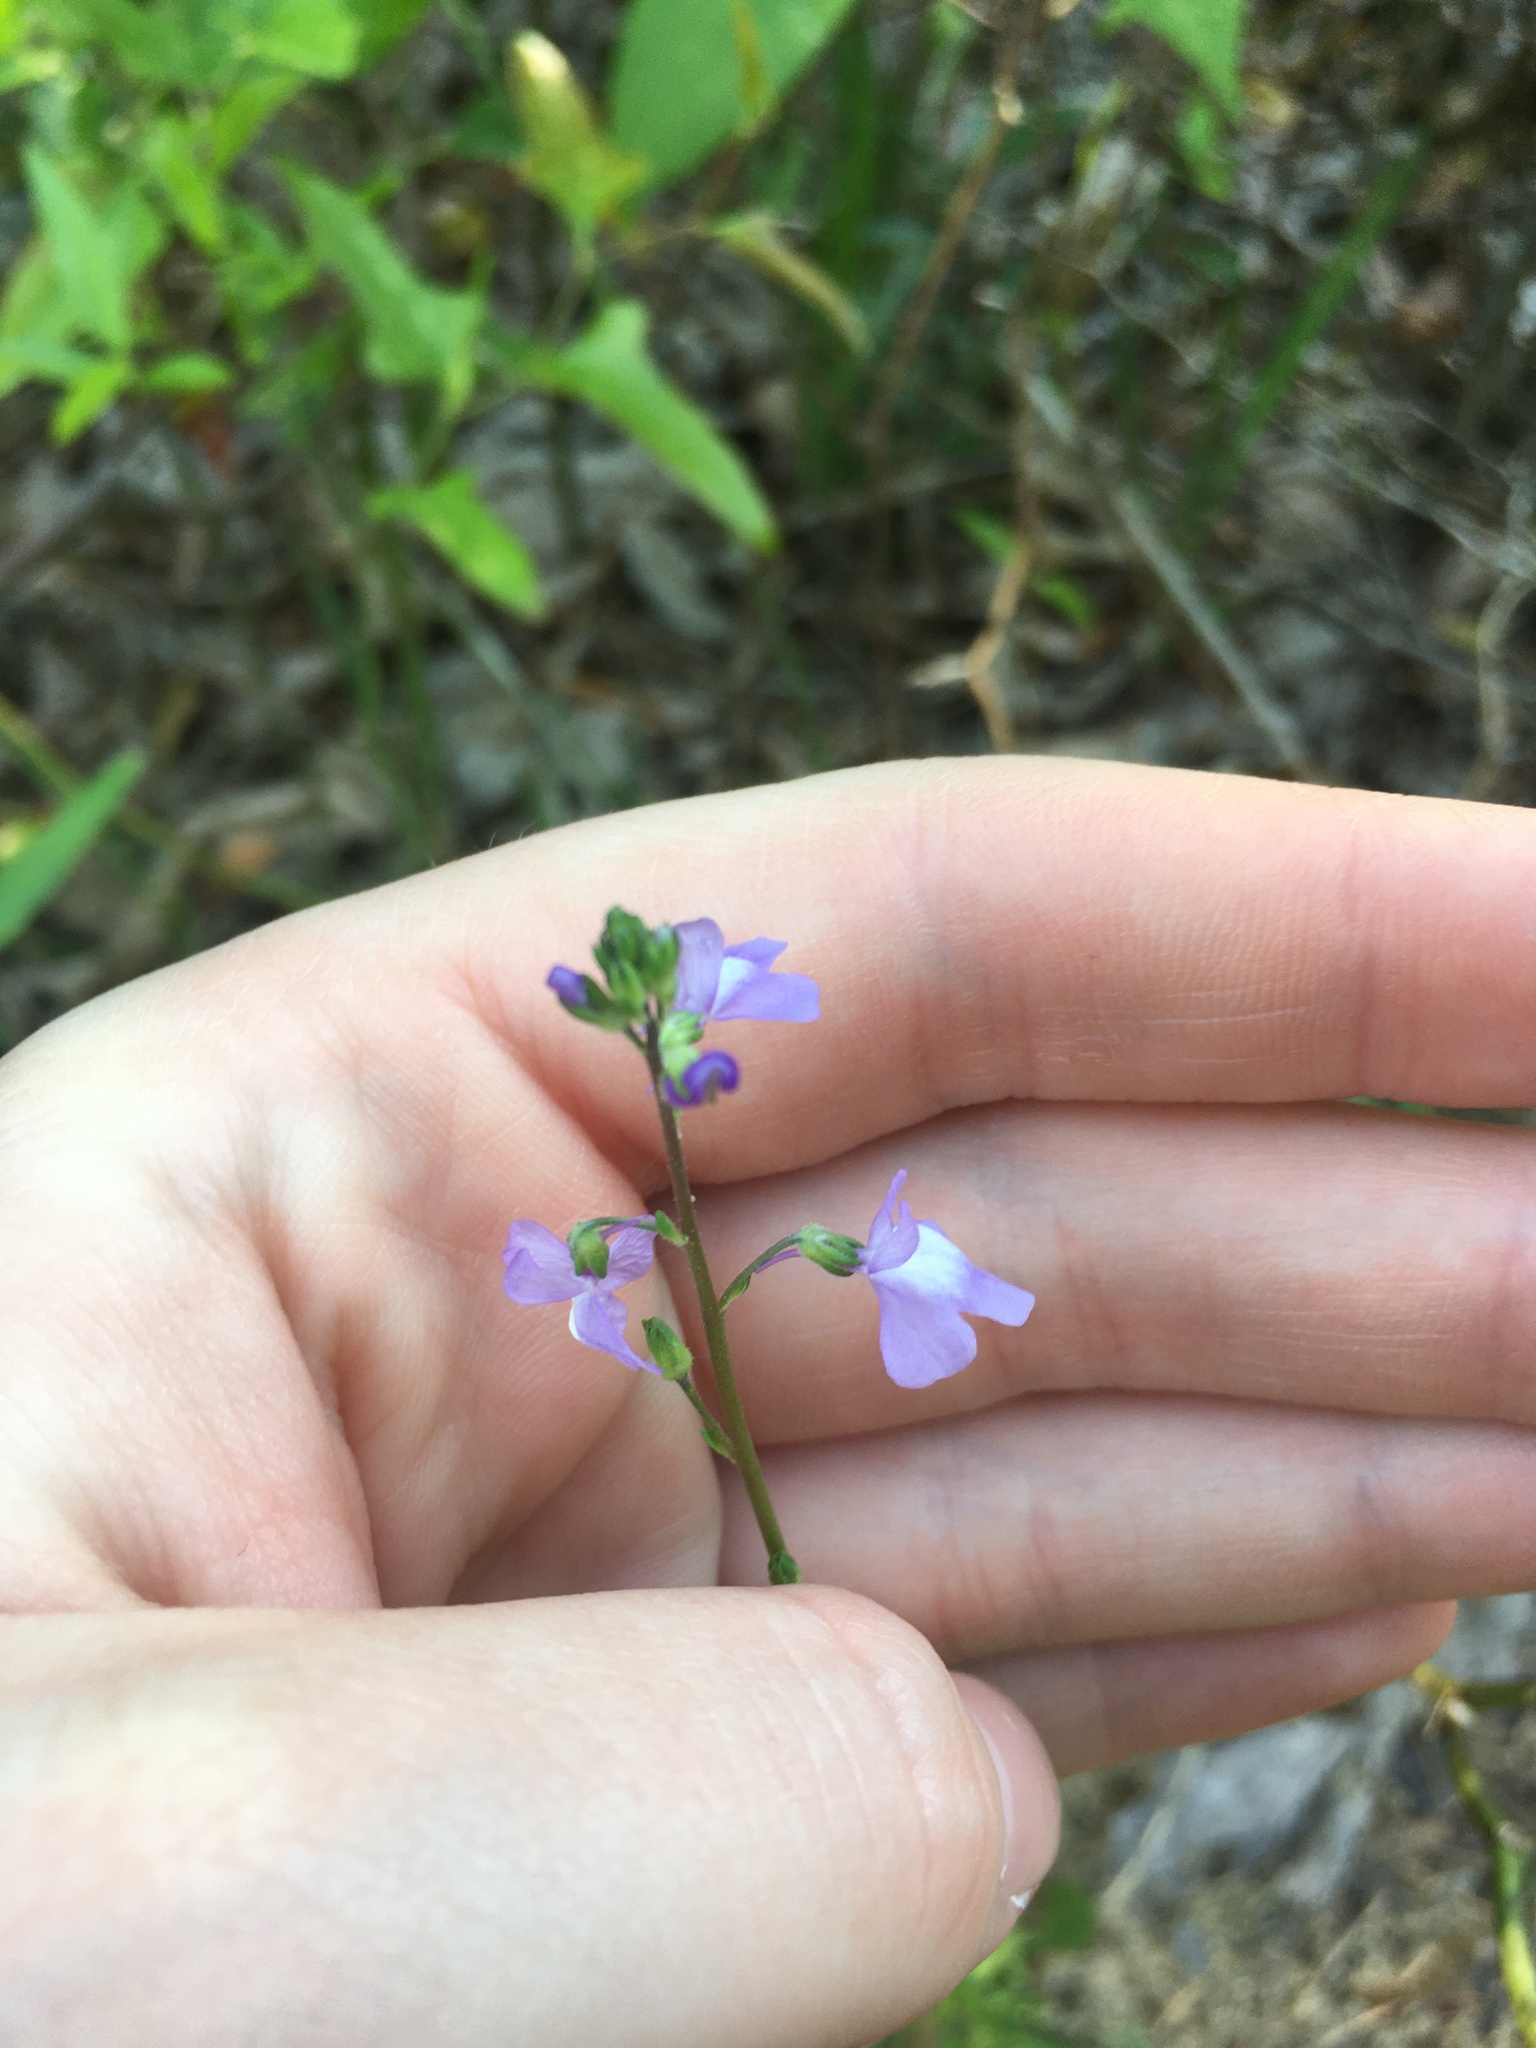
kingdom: Plantae
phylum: Tracheophyta
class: Magnoliopsida
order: Lamiales
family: Plantaginaceae
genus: Nuttallanthus
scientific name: Nuttallanthus canadensis
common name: Blue toadflax
